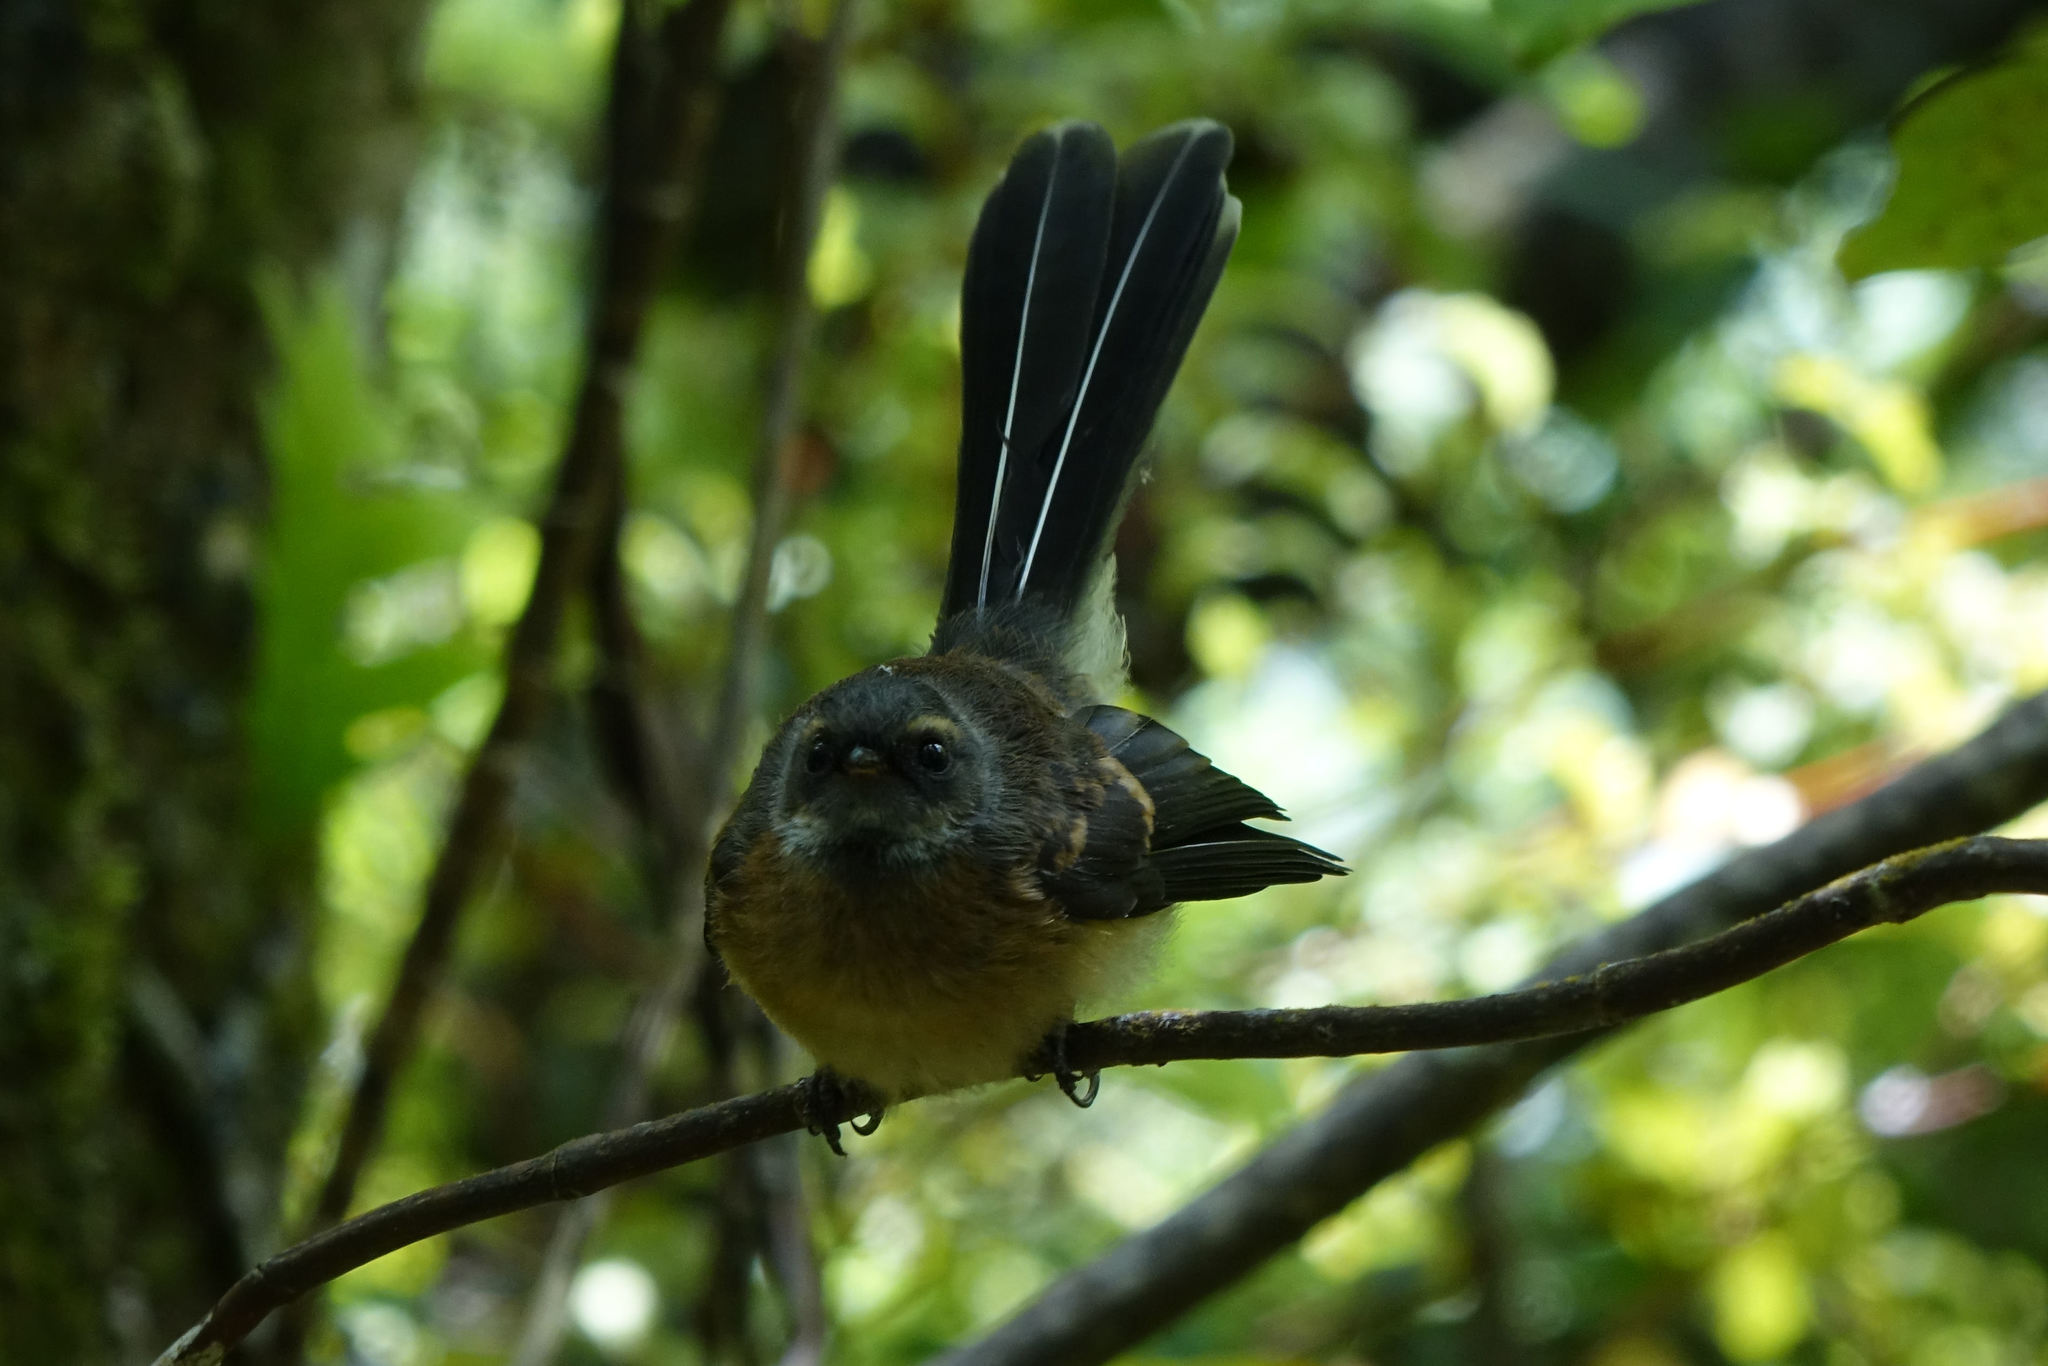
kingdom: Animalia
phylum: Chordata
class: Aves
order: Passeriformes
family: Rhipiduridae
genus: Rhipidura
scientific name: Rhipidura fuliginosa
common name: New zealand fantail
